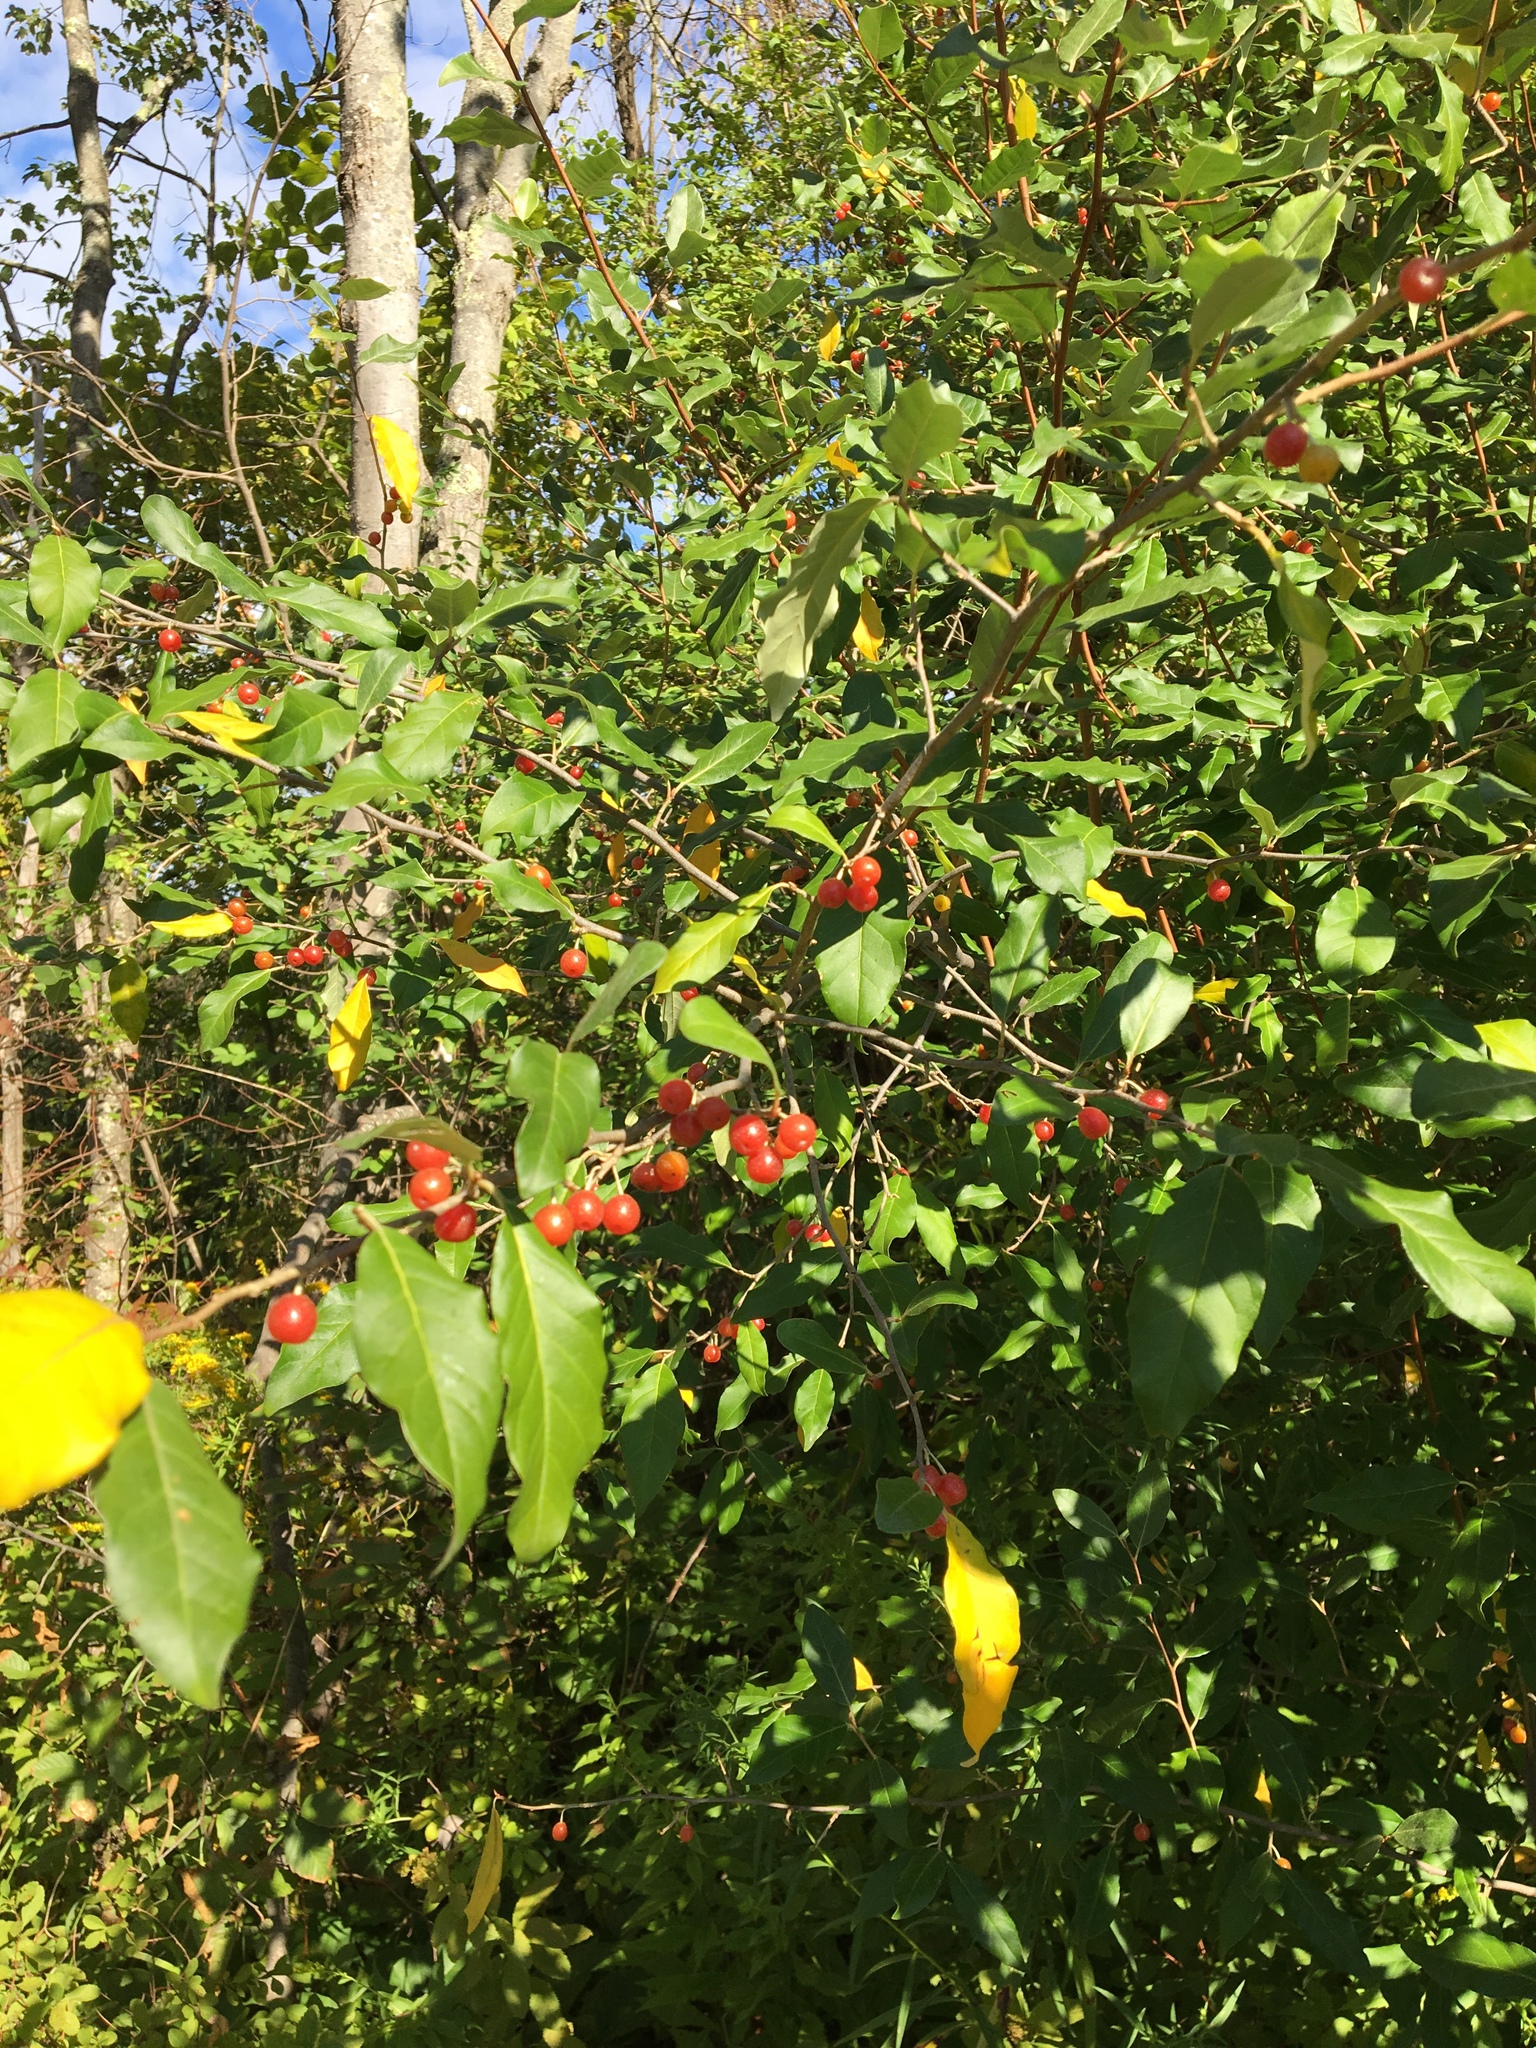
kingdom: Plantae
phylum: Tracheophyta
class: Magnoliopsida
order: Rosales
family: Elaeagnaceae
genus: Elaeagnus
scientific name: Elaeagnus umbellata
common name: Autumn olive
